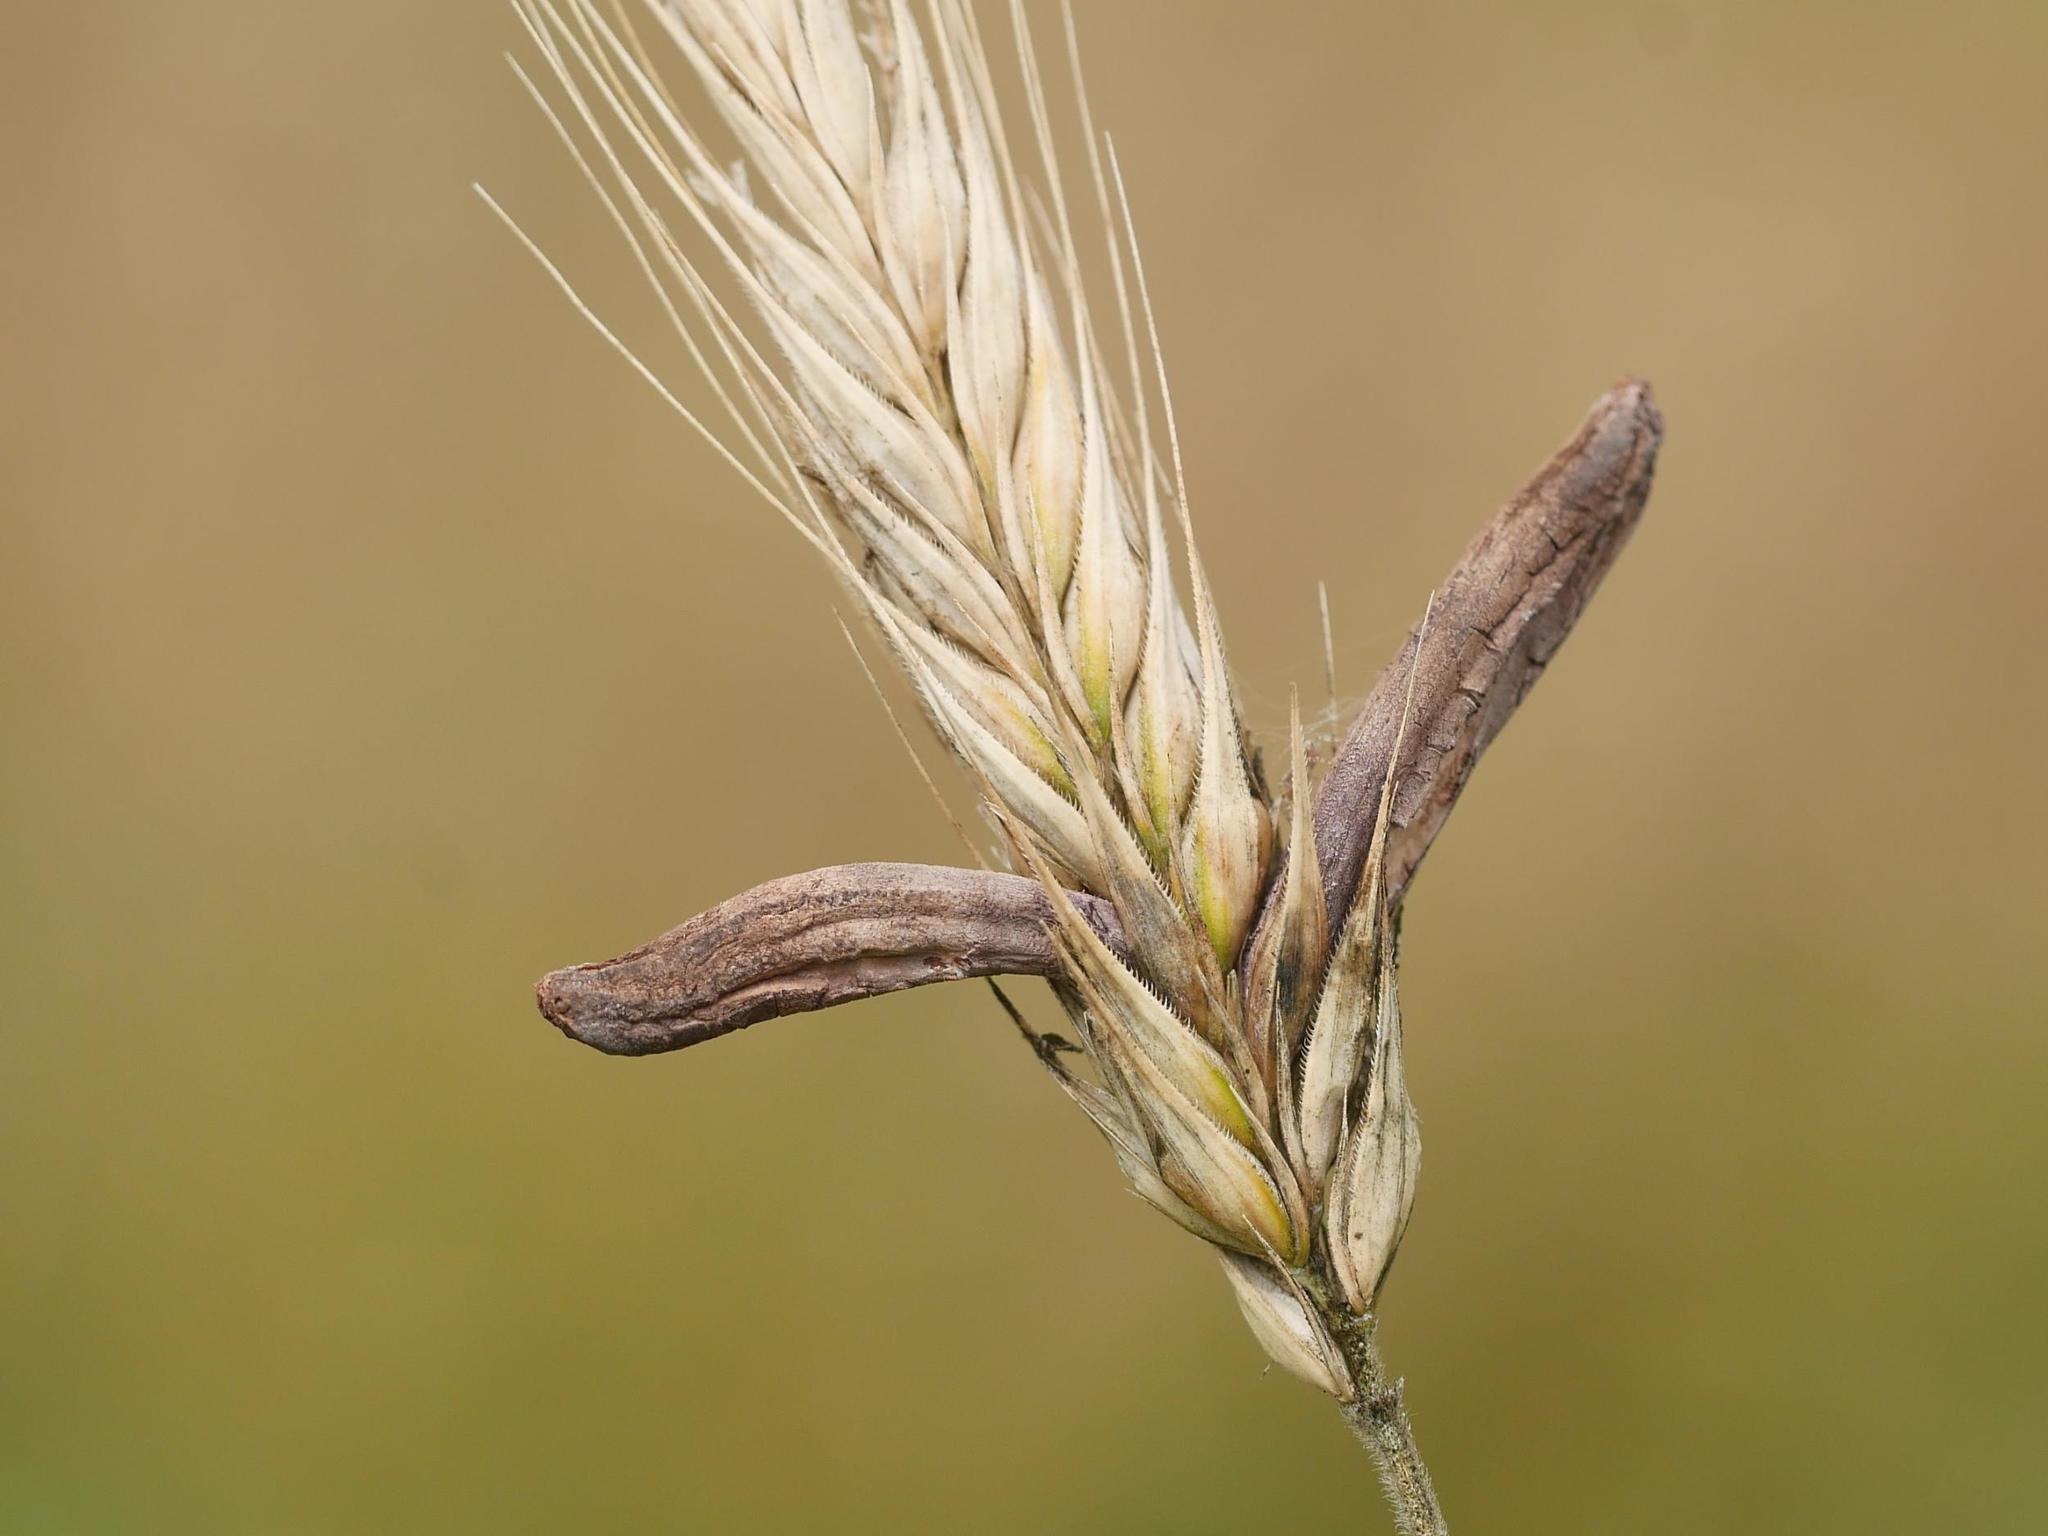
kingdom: Fungi
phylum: Ascomycota
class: Sordariomycetes
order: Hypocreales
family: Clavicipitaceae
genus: Claviceps
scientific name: Claviceps purpurea
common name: Rye ergot
